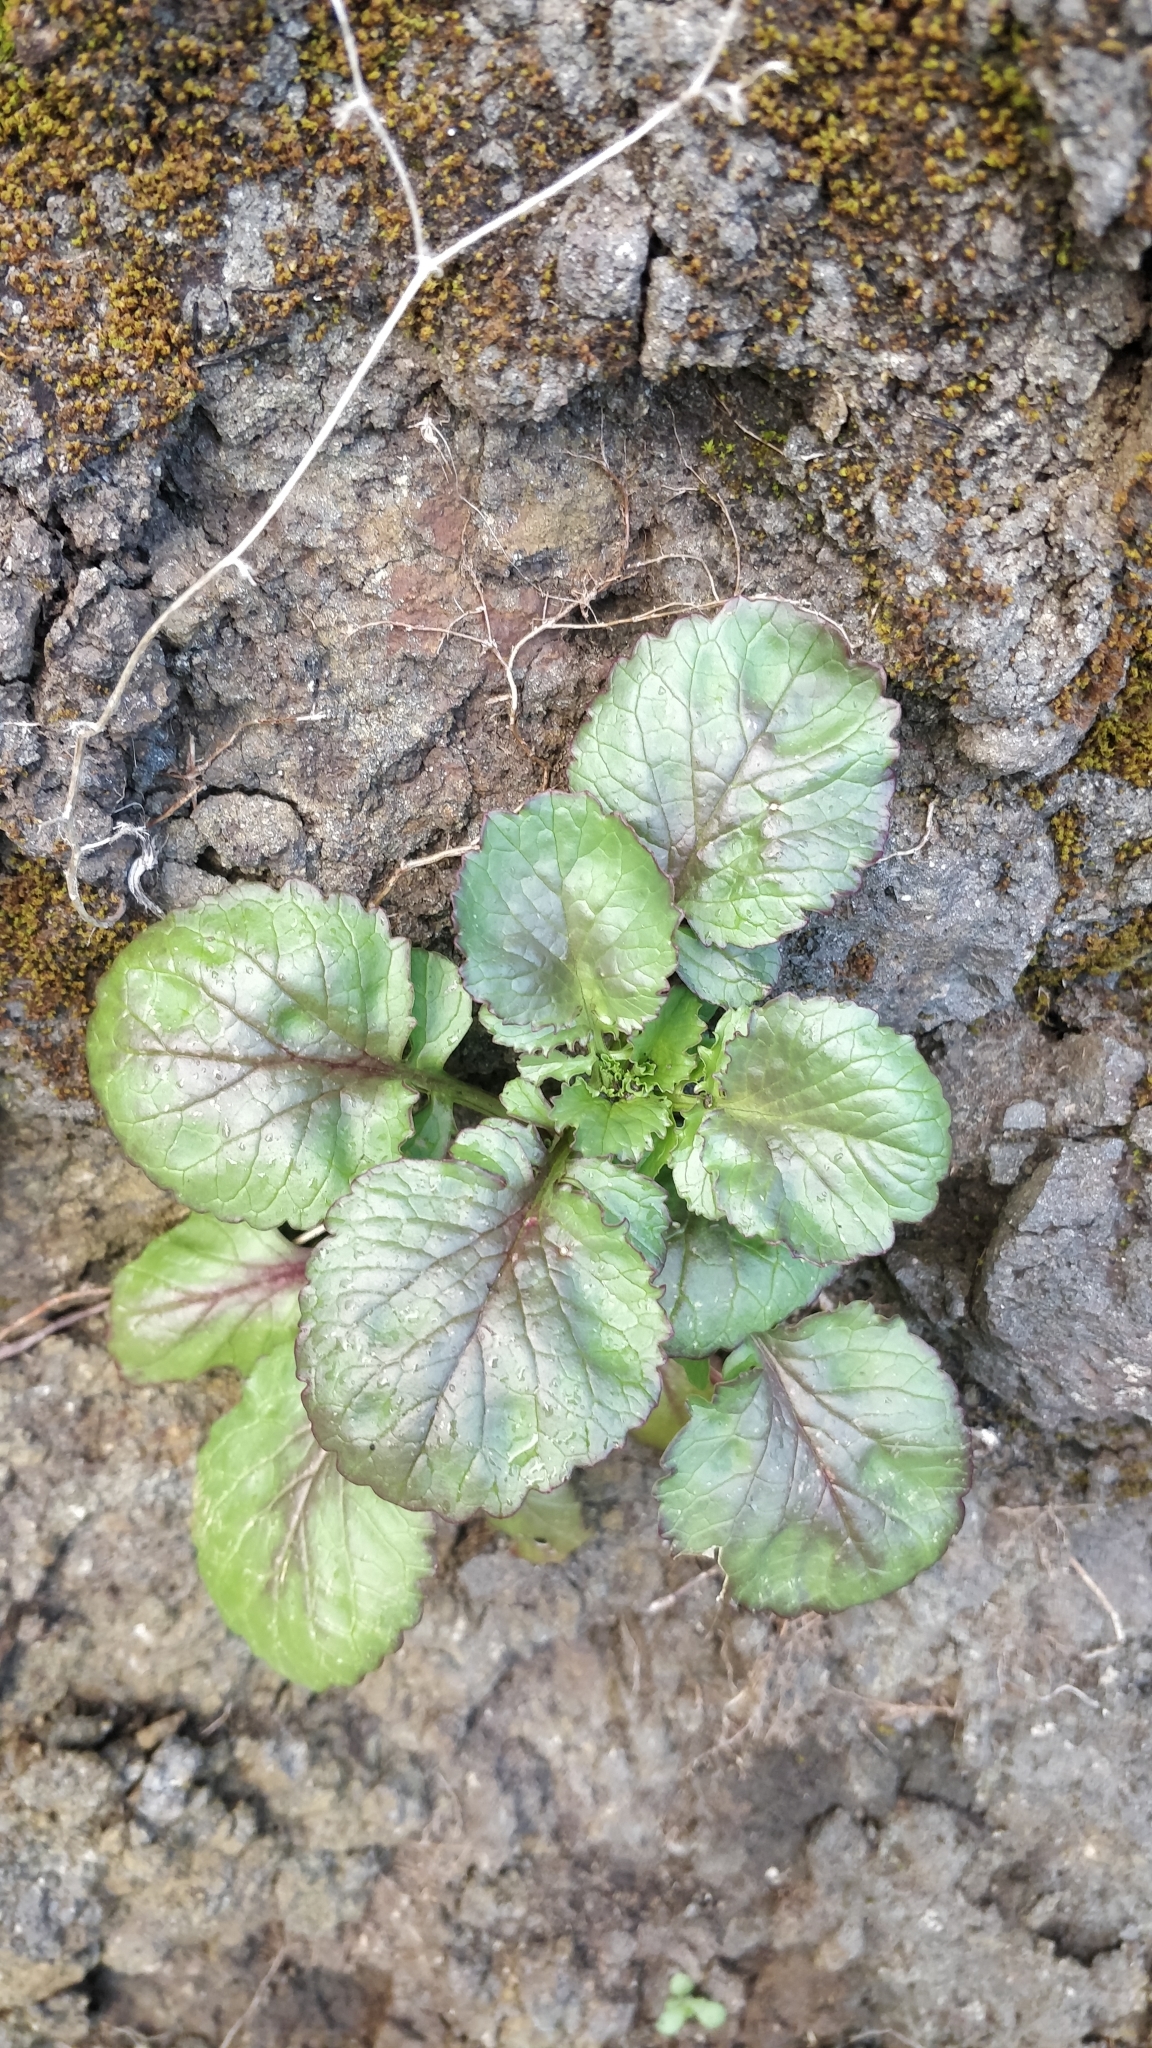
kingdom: Plantae
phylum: Tracheophyta
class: Magnoliopsida
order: Dipsacales
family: Caprifoliaceae
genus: Centranthus
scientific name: Centranthus calcitrapae
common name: Annual valerian
